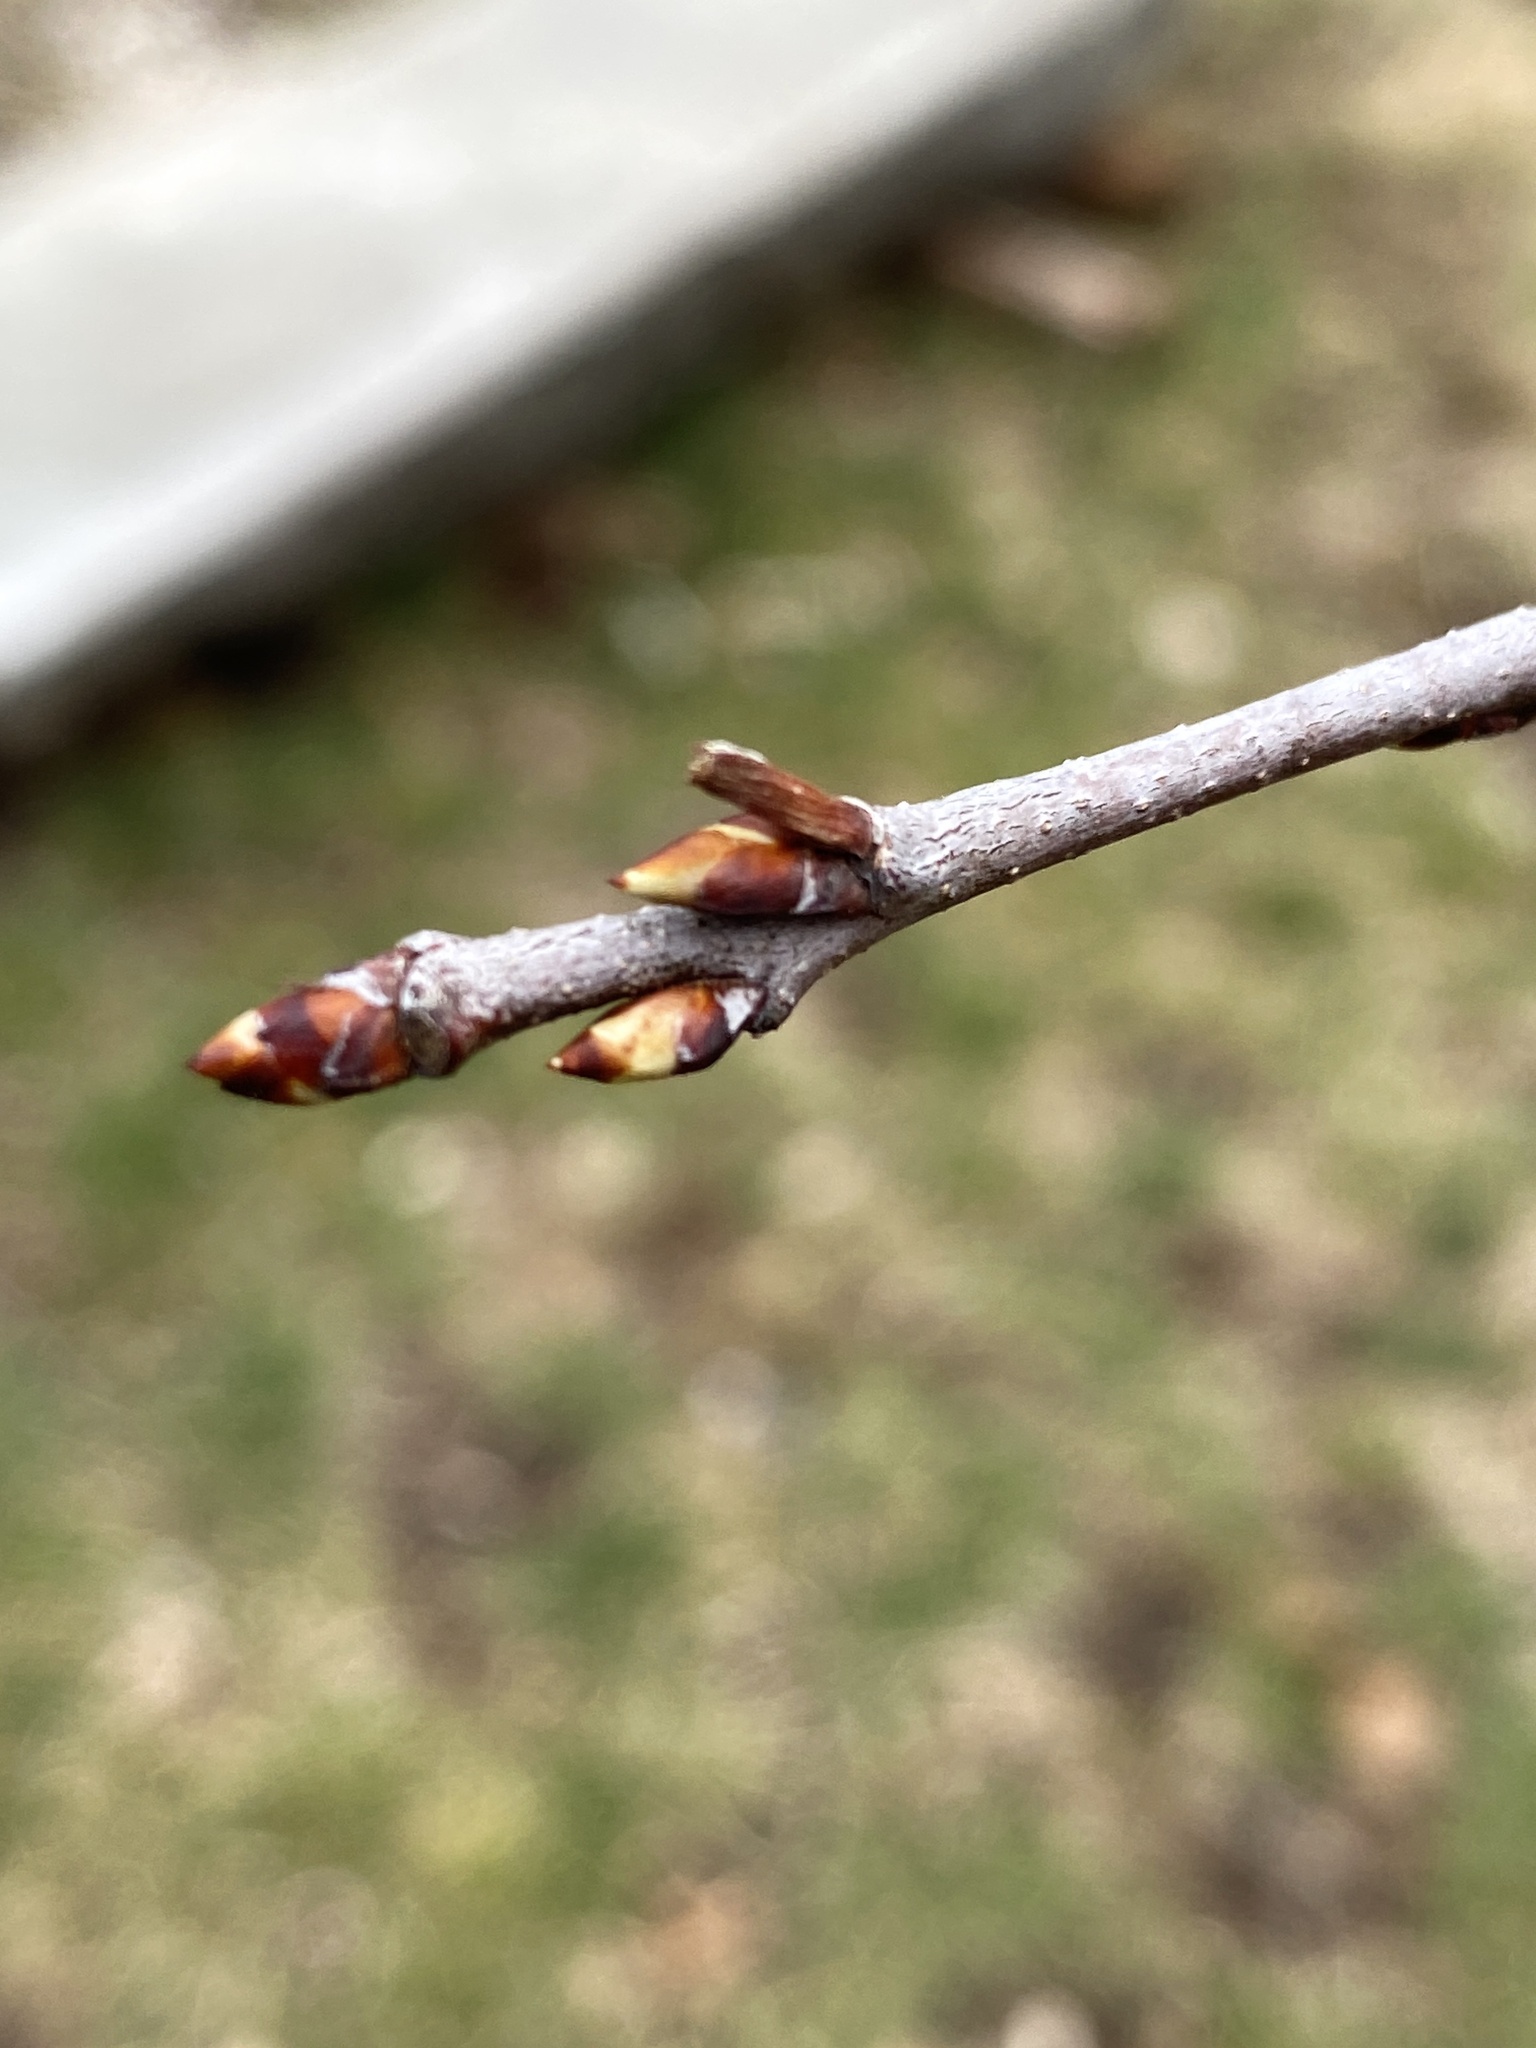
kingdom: Plantae
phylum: Tracheophyta
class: Magnoliopsida
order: Rosales
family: Rosaceae
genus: Prunus
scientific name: Prunus serotina
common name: Black cherry
